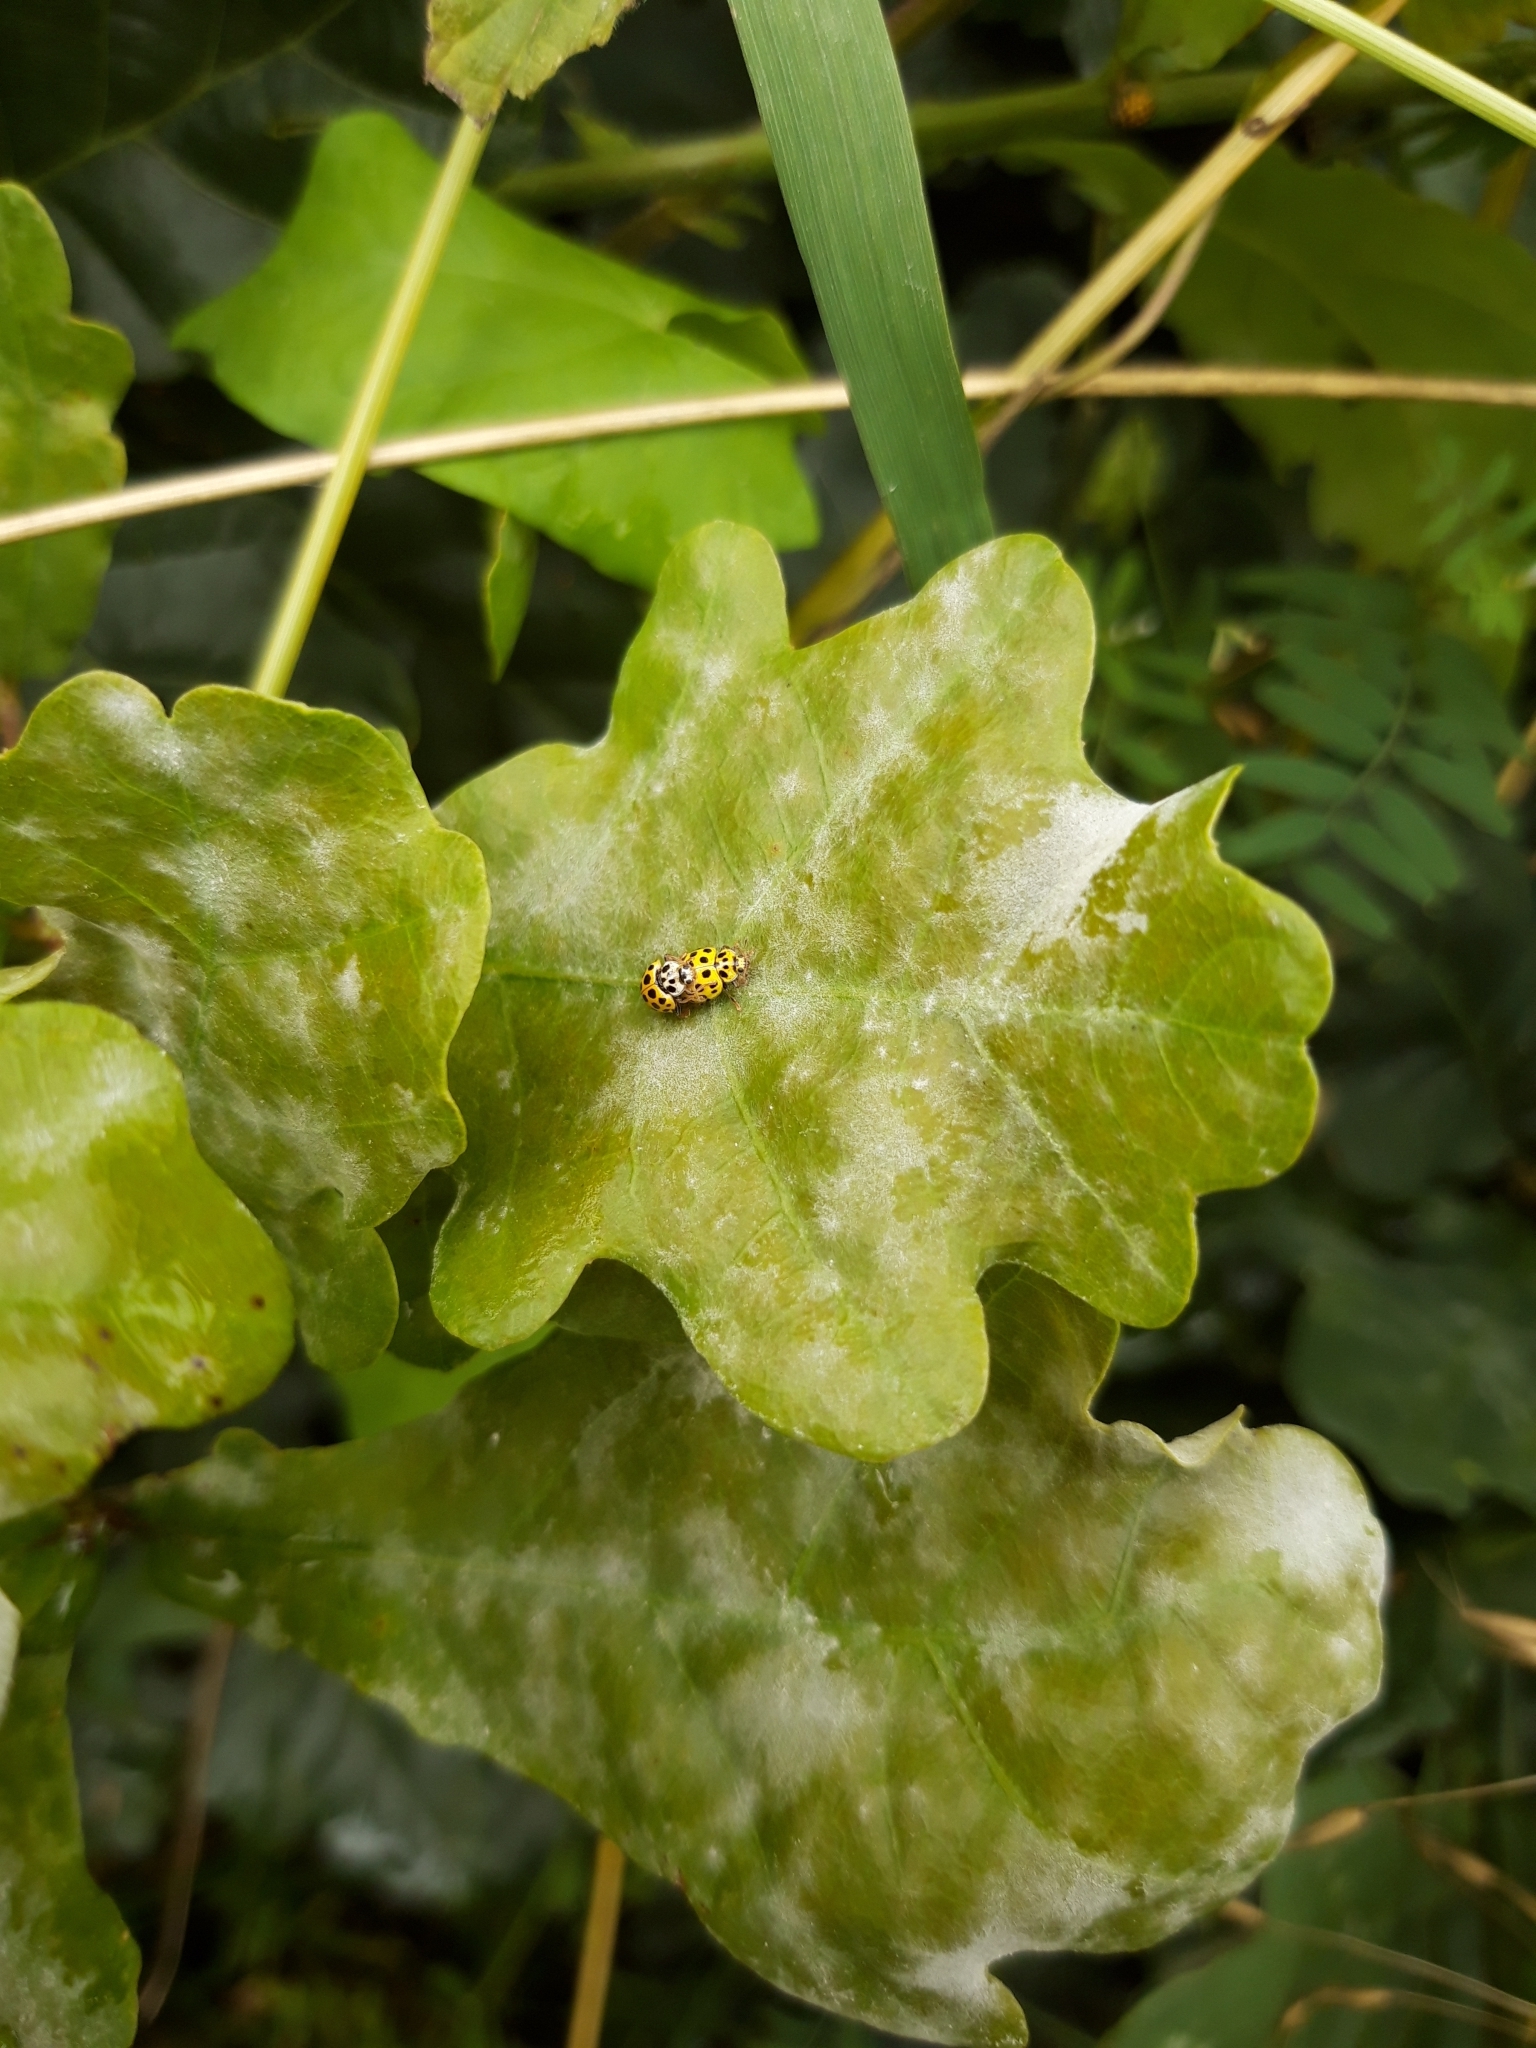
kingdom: Animalia
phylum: Arthropoda
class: Insecta
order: Coleoptera
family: Coccinellidae
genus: Psyllobora
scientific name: Psyllobora vigintiduopunctata
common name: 22-spot ladybird
